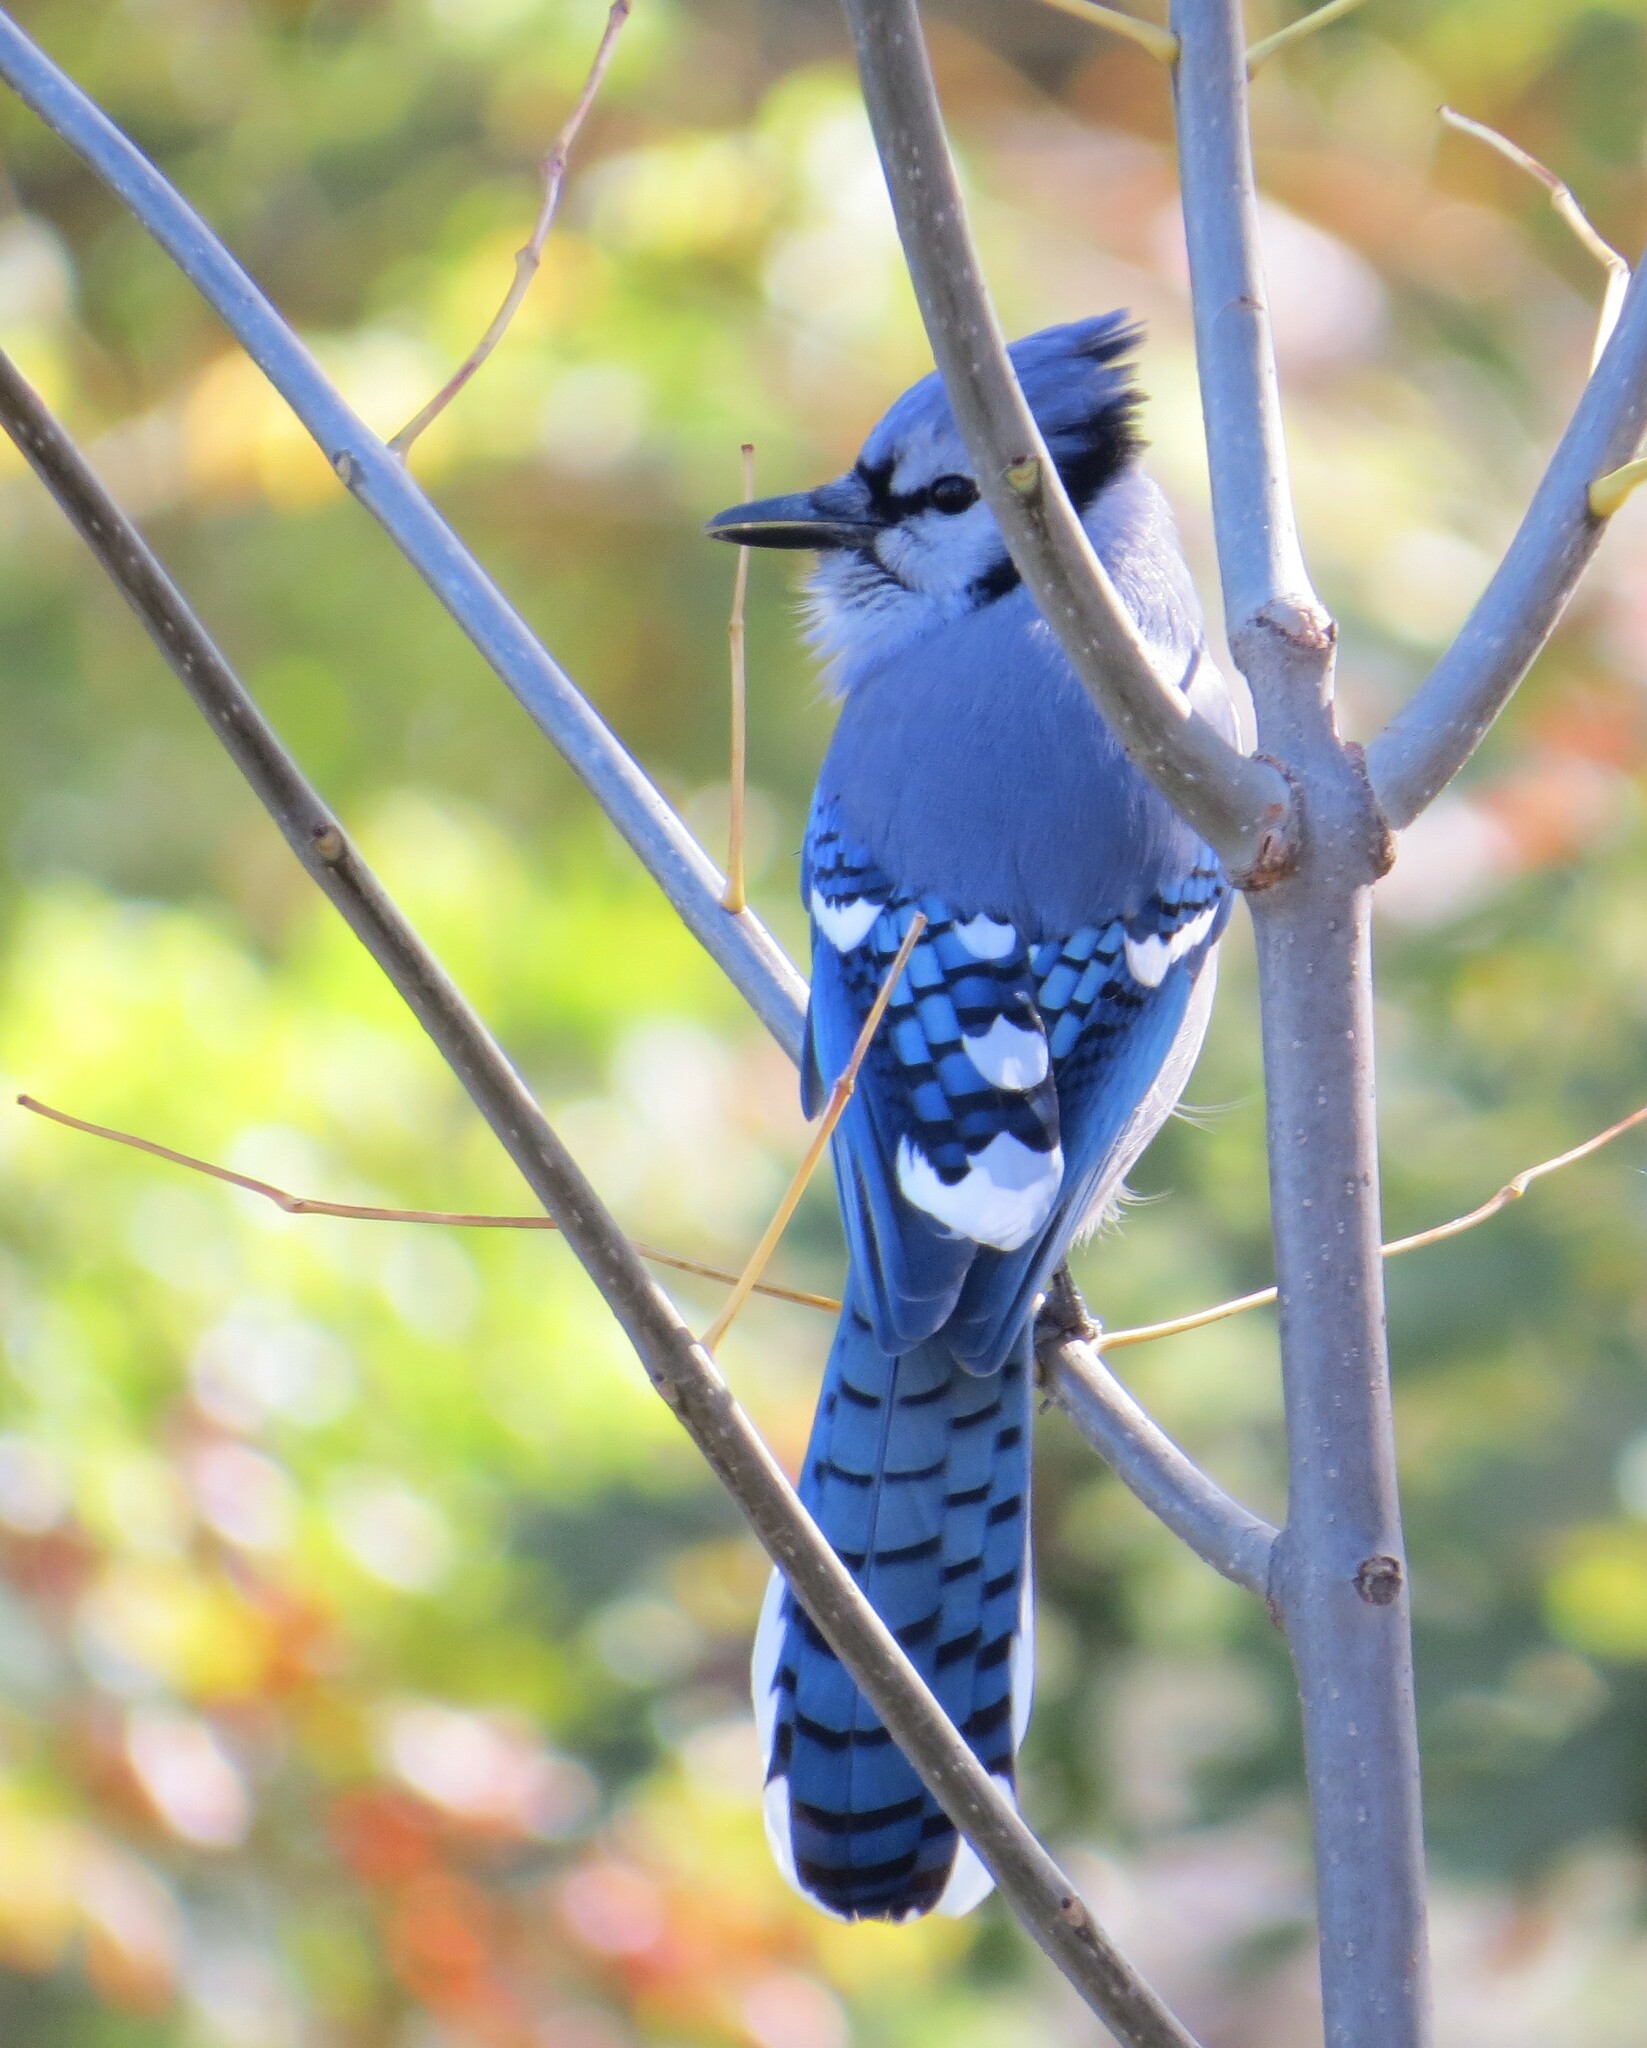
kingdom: Animalia
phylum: Chordata
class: Aves
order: Passeriformes
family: Corvidae
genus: Cyanocitta
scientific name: Cyanocitta cristata
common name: Blue jay
